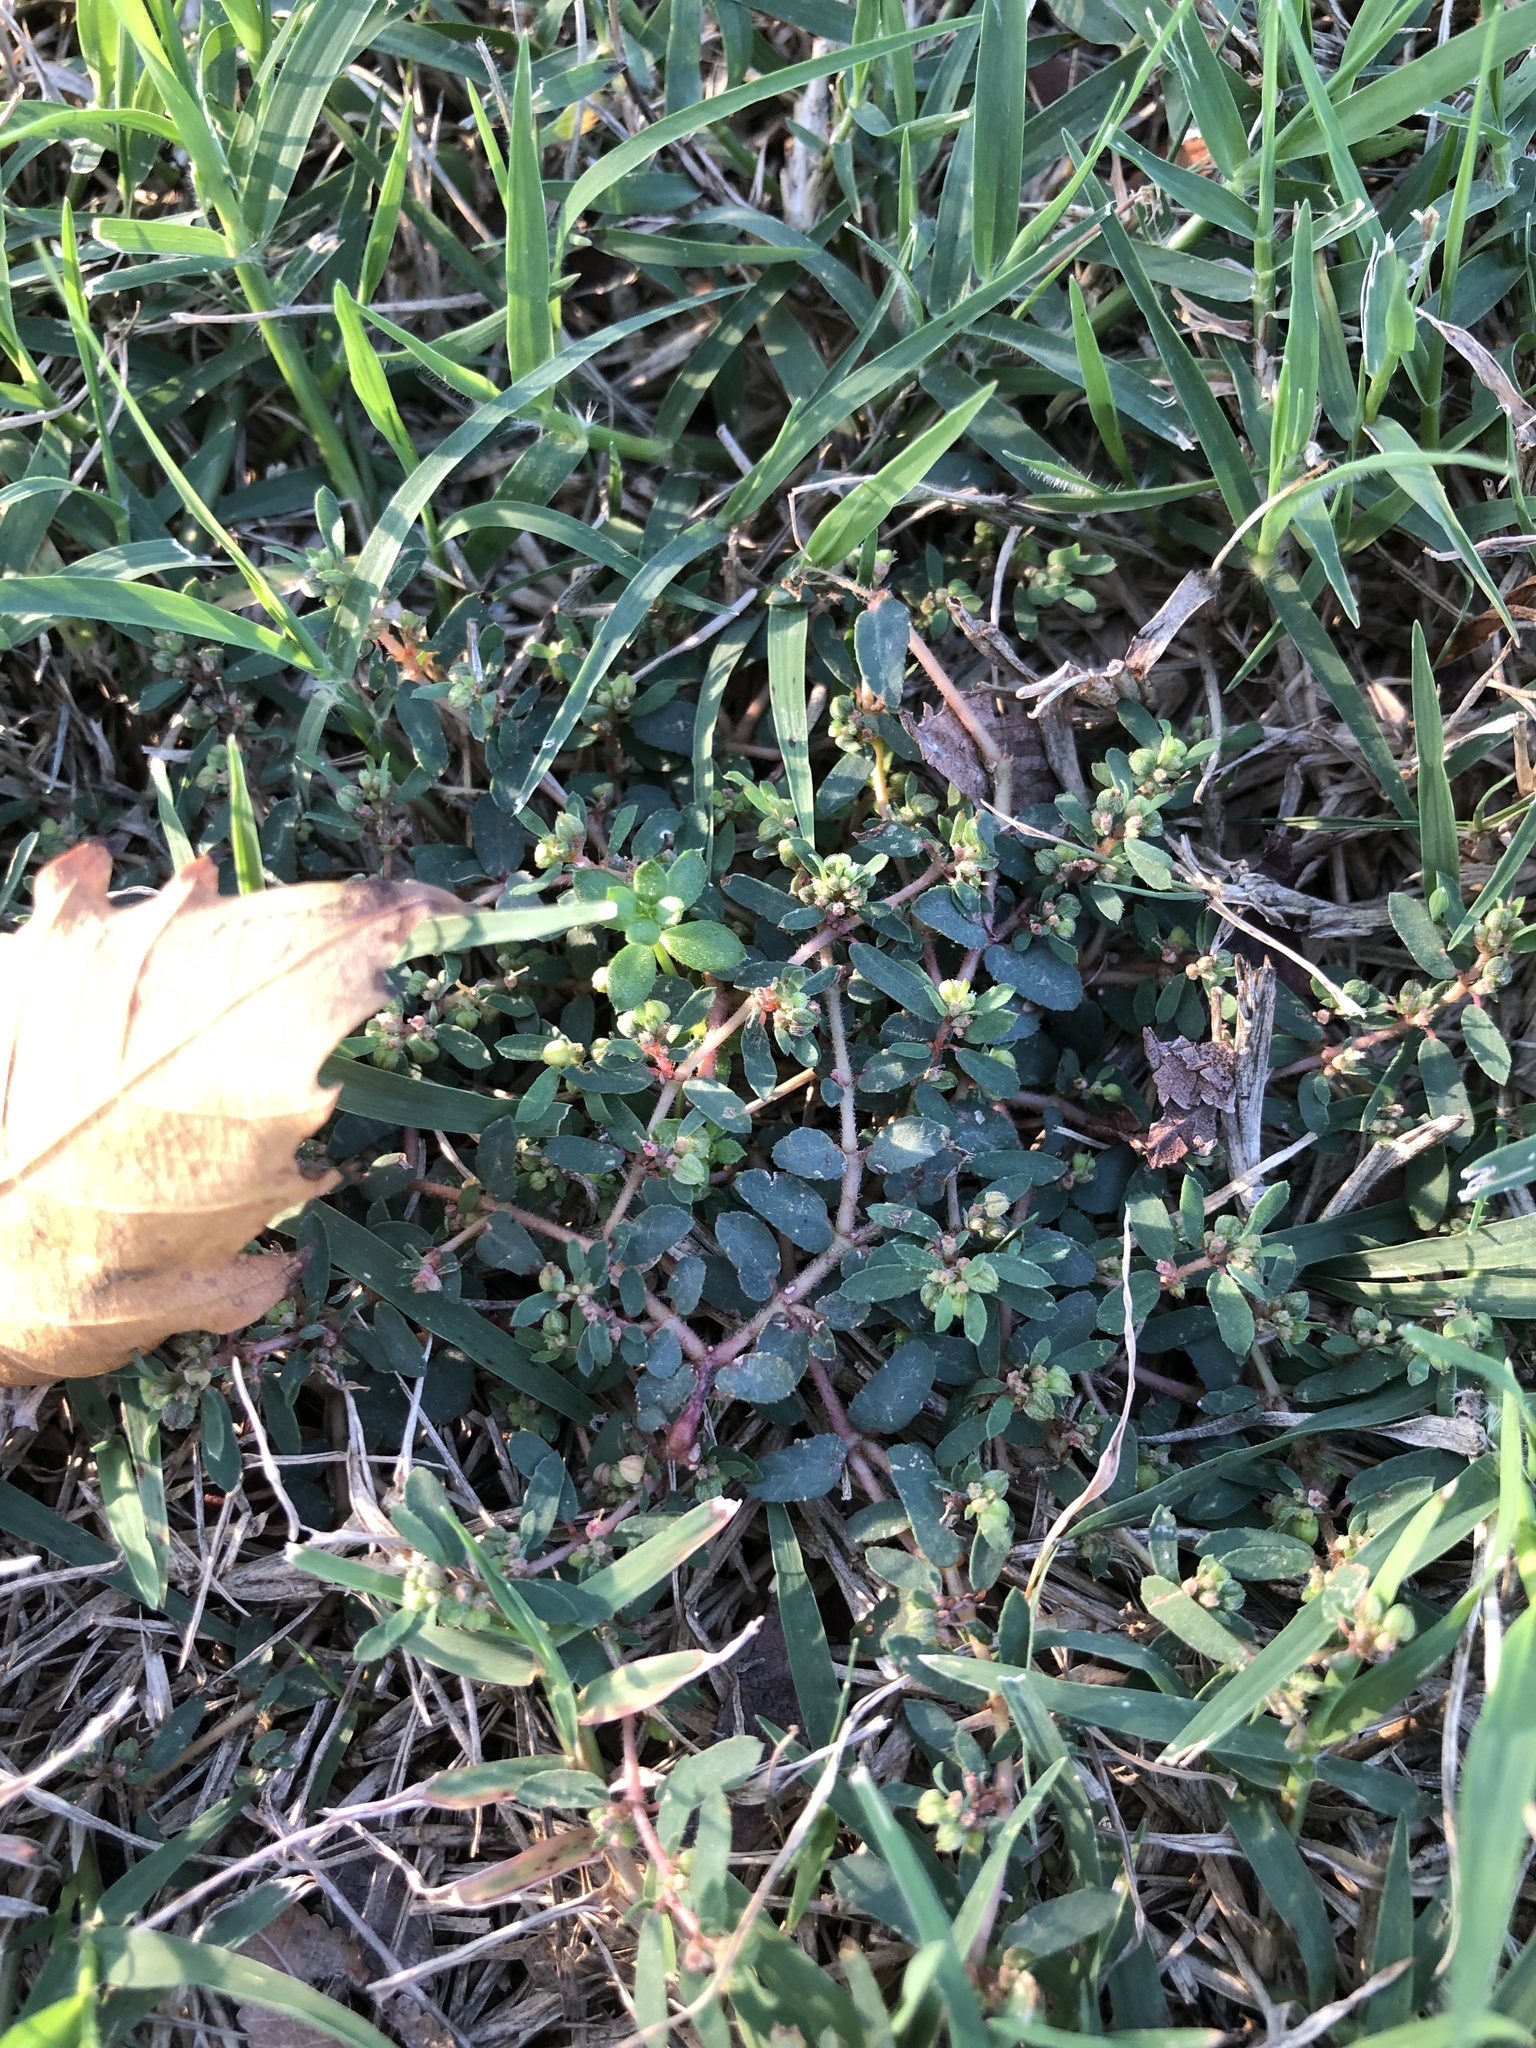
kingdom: Plantae
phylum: Tracheophyta
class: Magnoliopsida
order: Malpighiales
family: Euphorbiaceae
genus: Euphorbia
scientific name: Euphorbia maculata
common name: Spotted spurge
